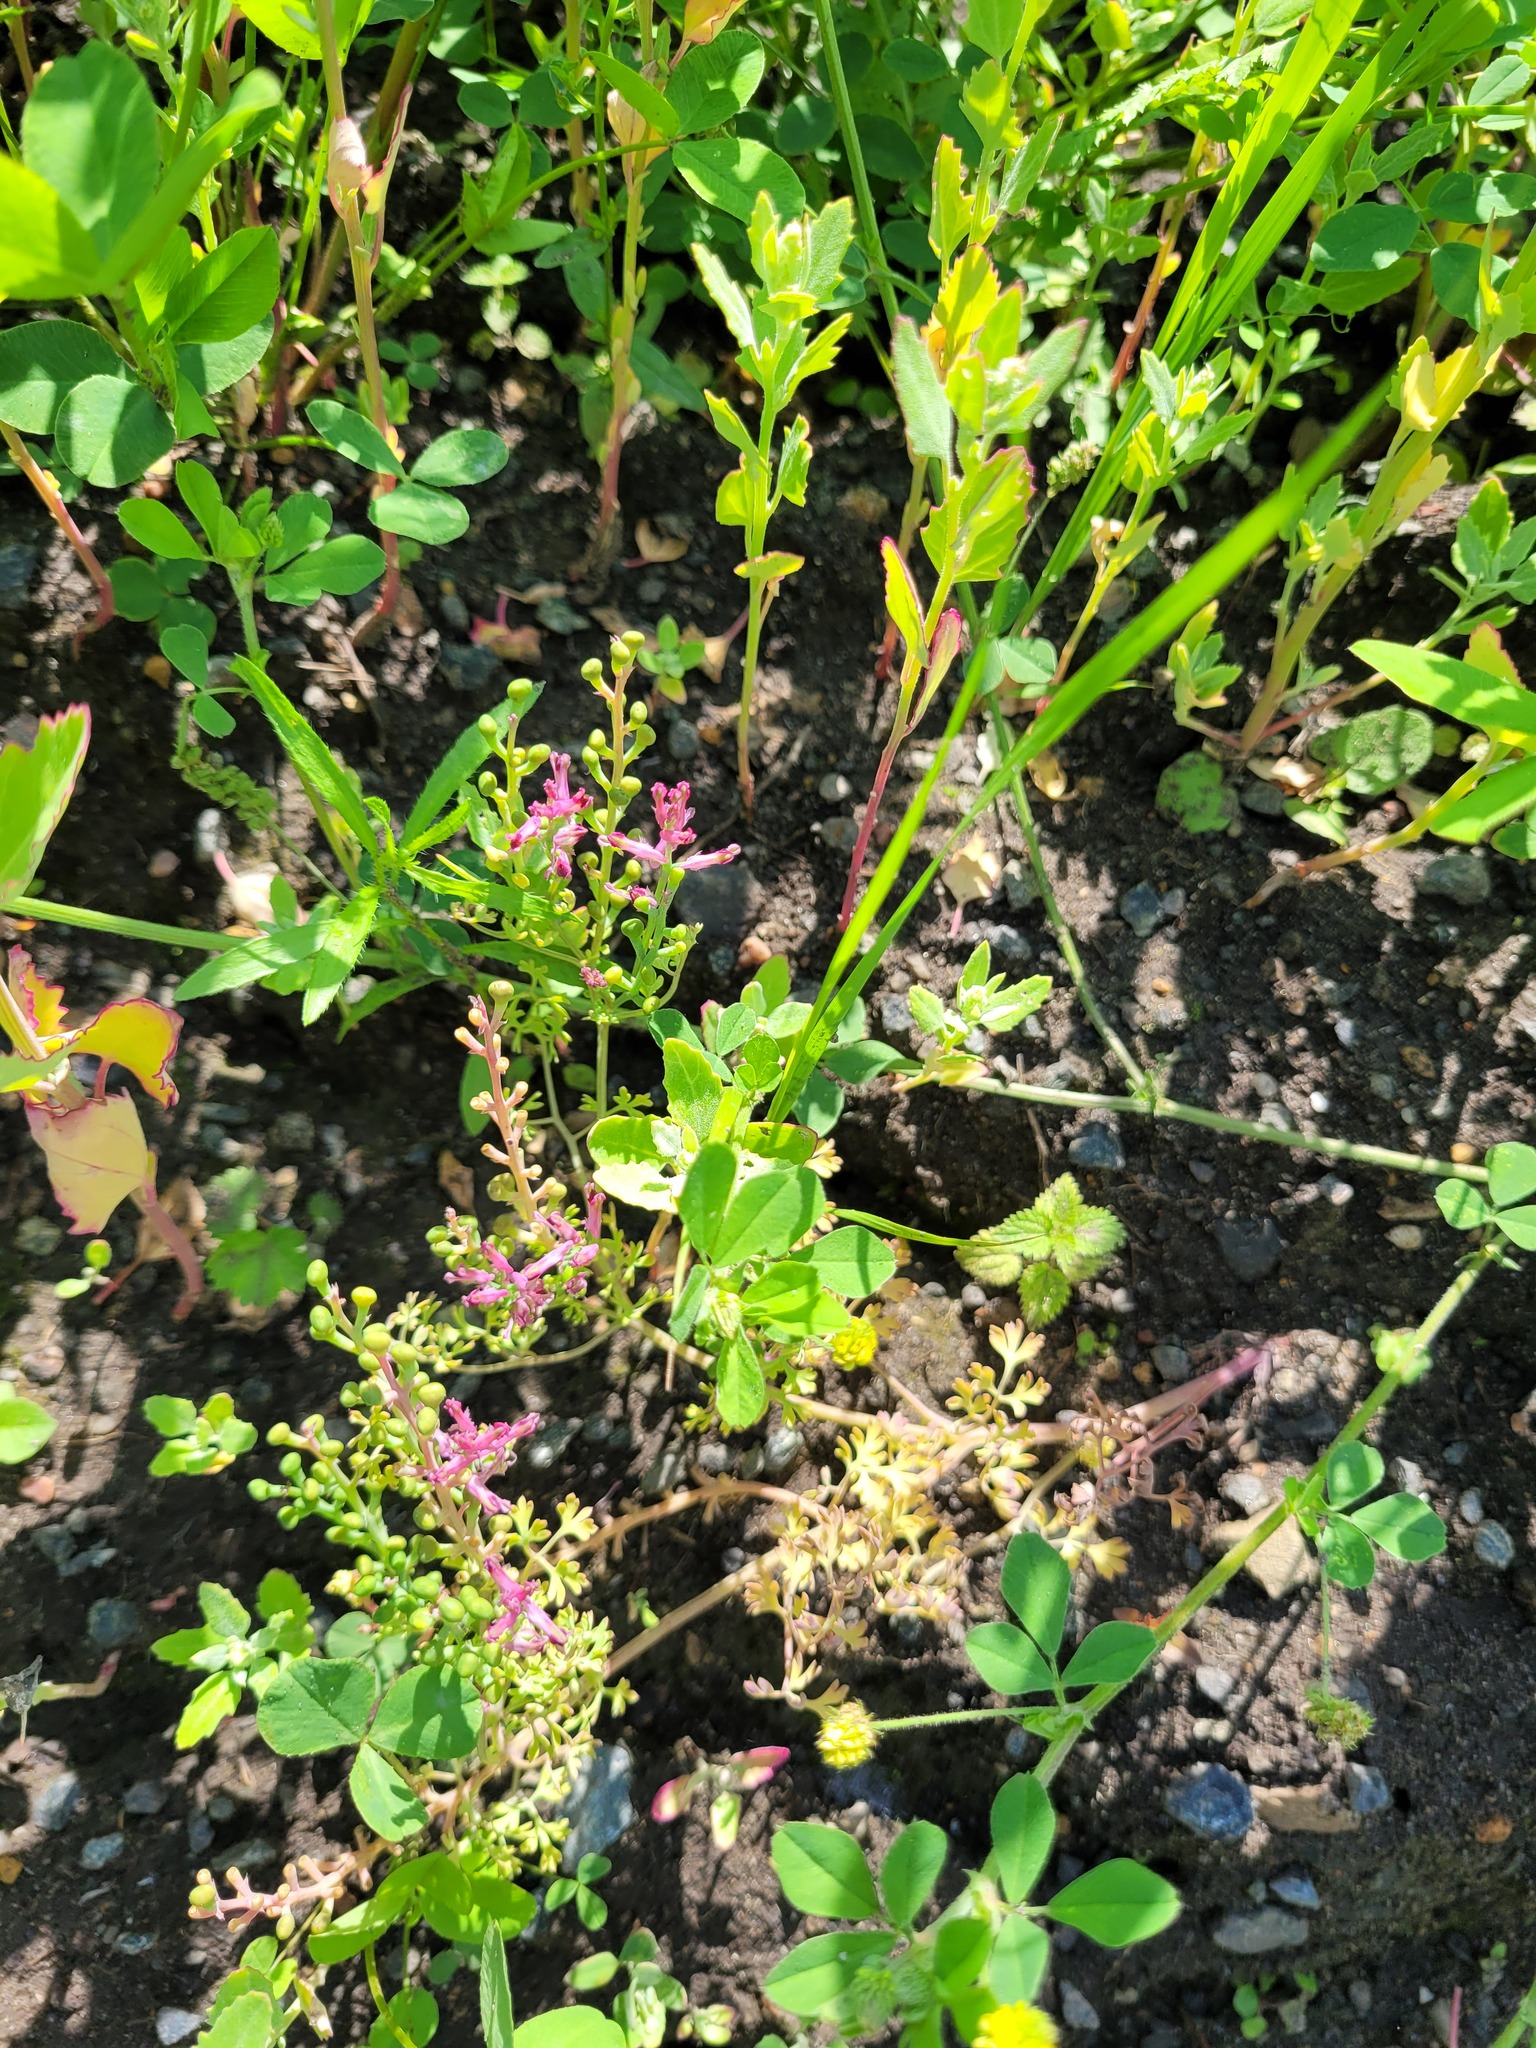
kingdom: Plantae
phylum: Tracheophyta
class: Magnoliopsida
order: Ranunculales
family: Papaveraceae
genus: Fumaria
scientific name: Fumaria officinalis
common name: Common fumitory
